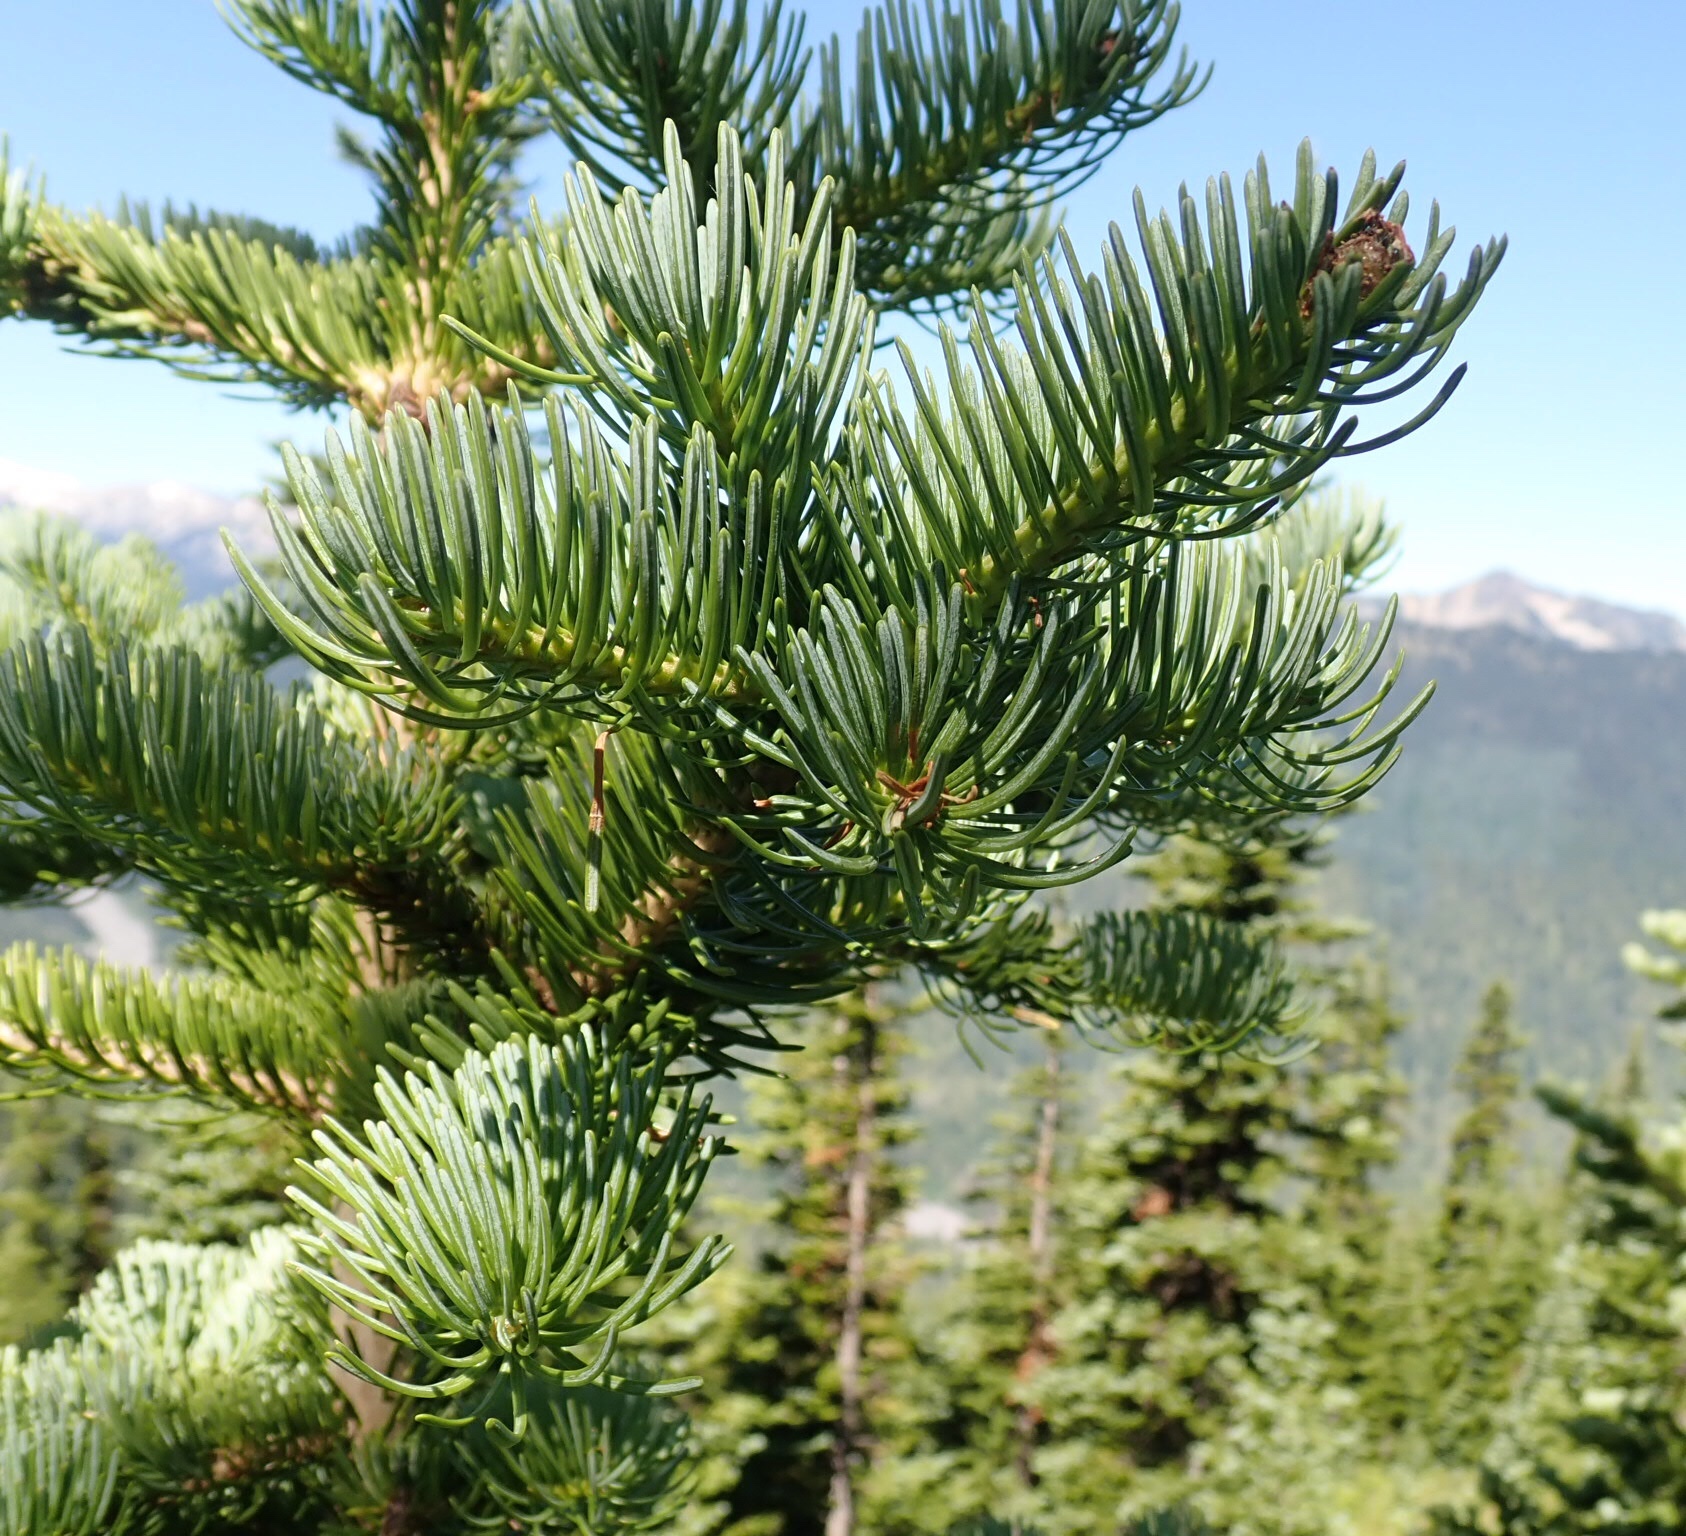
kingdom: Plantae
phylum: Tracheophyta
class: Pinopsida
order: Pinales
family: Pinaceae
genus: Abies
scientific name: Abies lasiocarpa
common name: Subalpine fir
